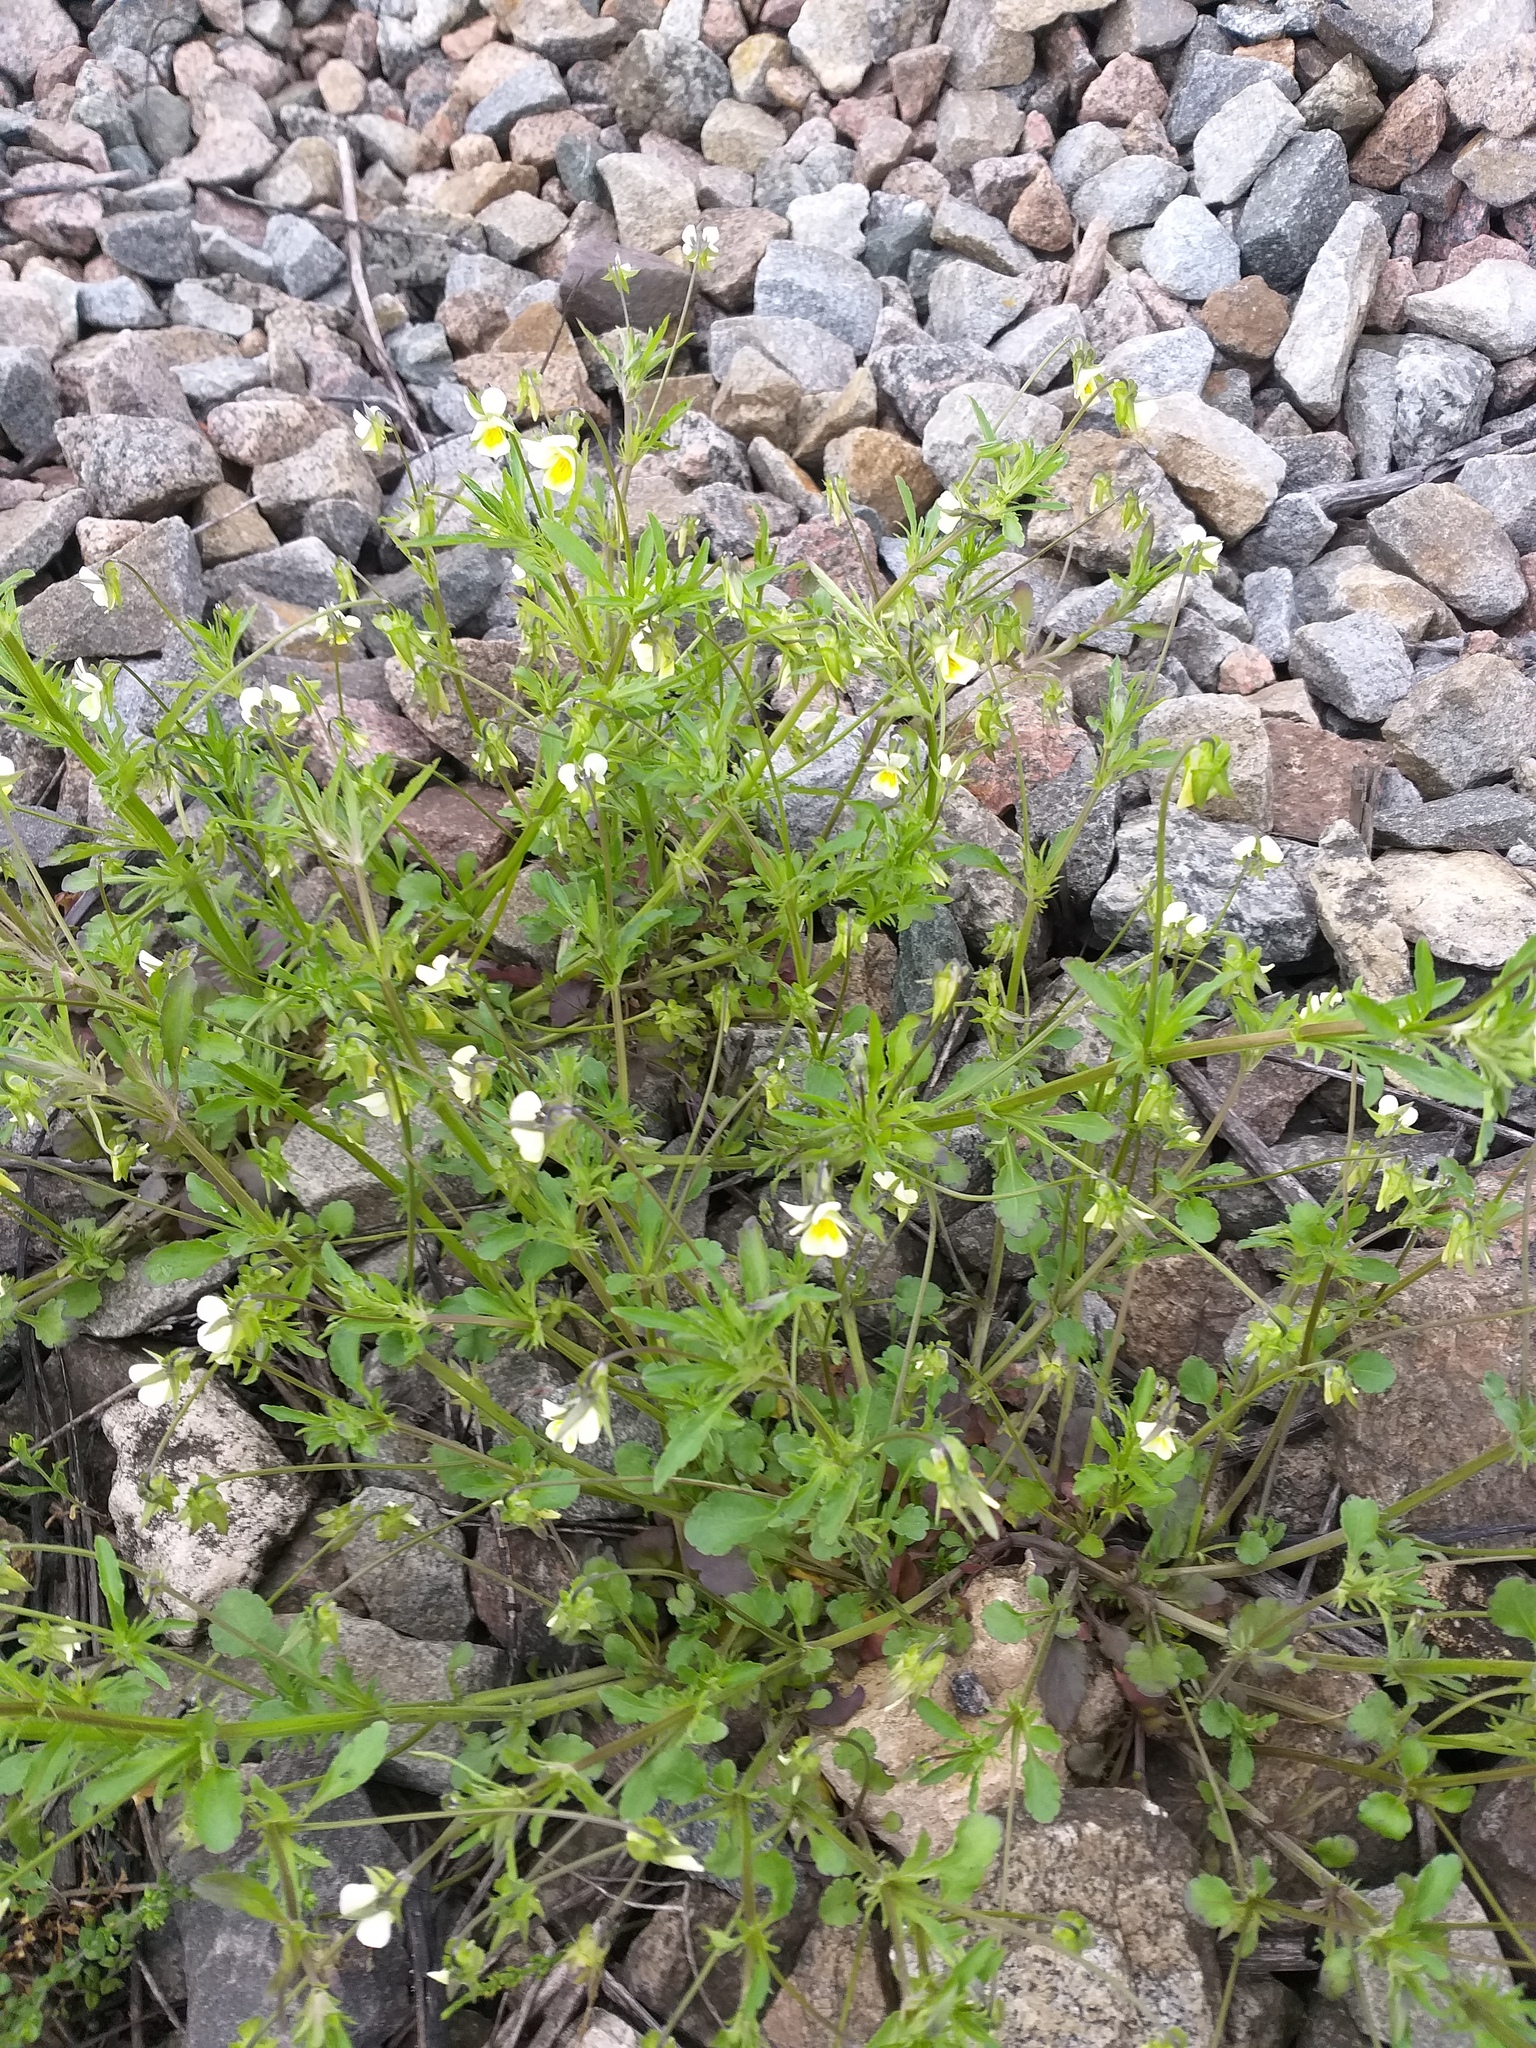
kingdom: Plantae
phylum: Tracheophyta
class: Magnoliopsida
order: Malpighiales
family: Violaceae
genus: Viola
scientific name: Viola arvensis
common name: Field pansy
